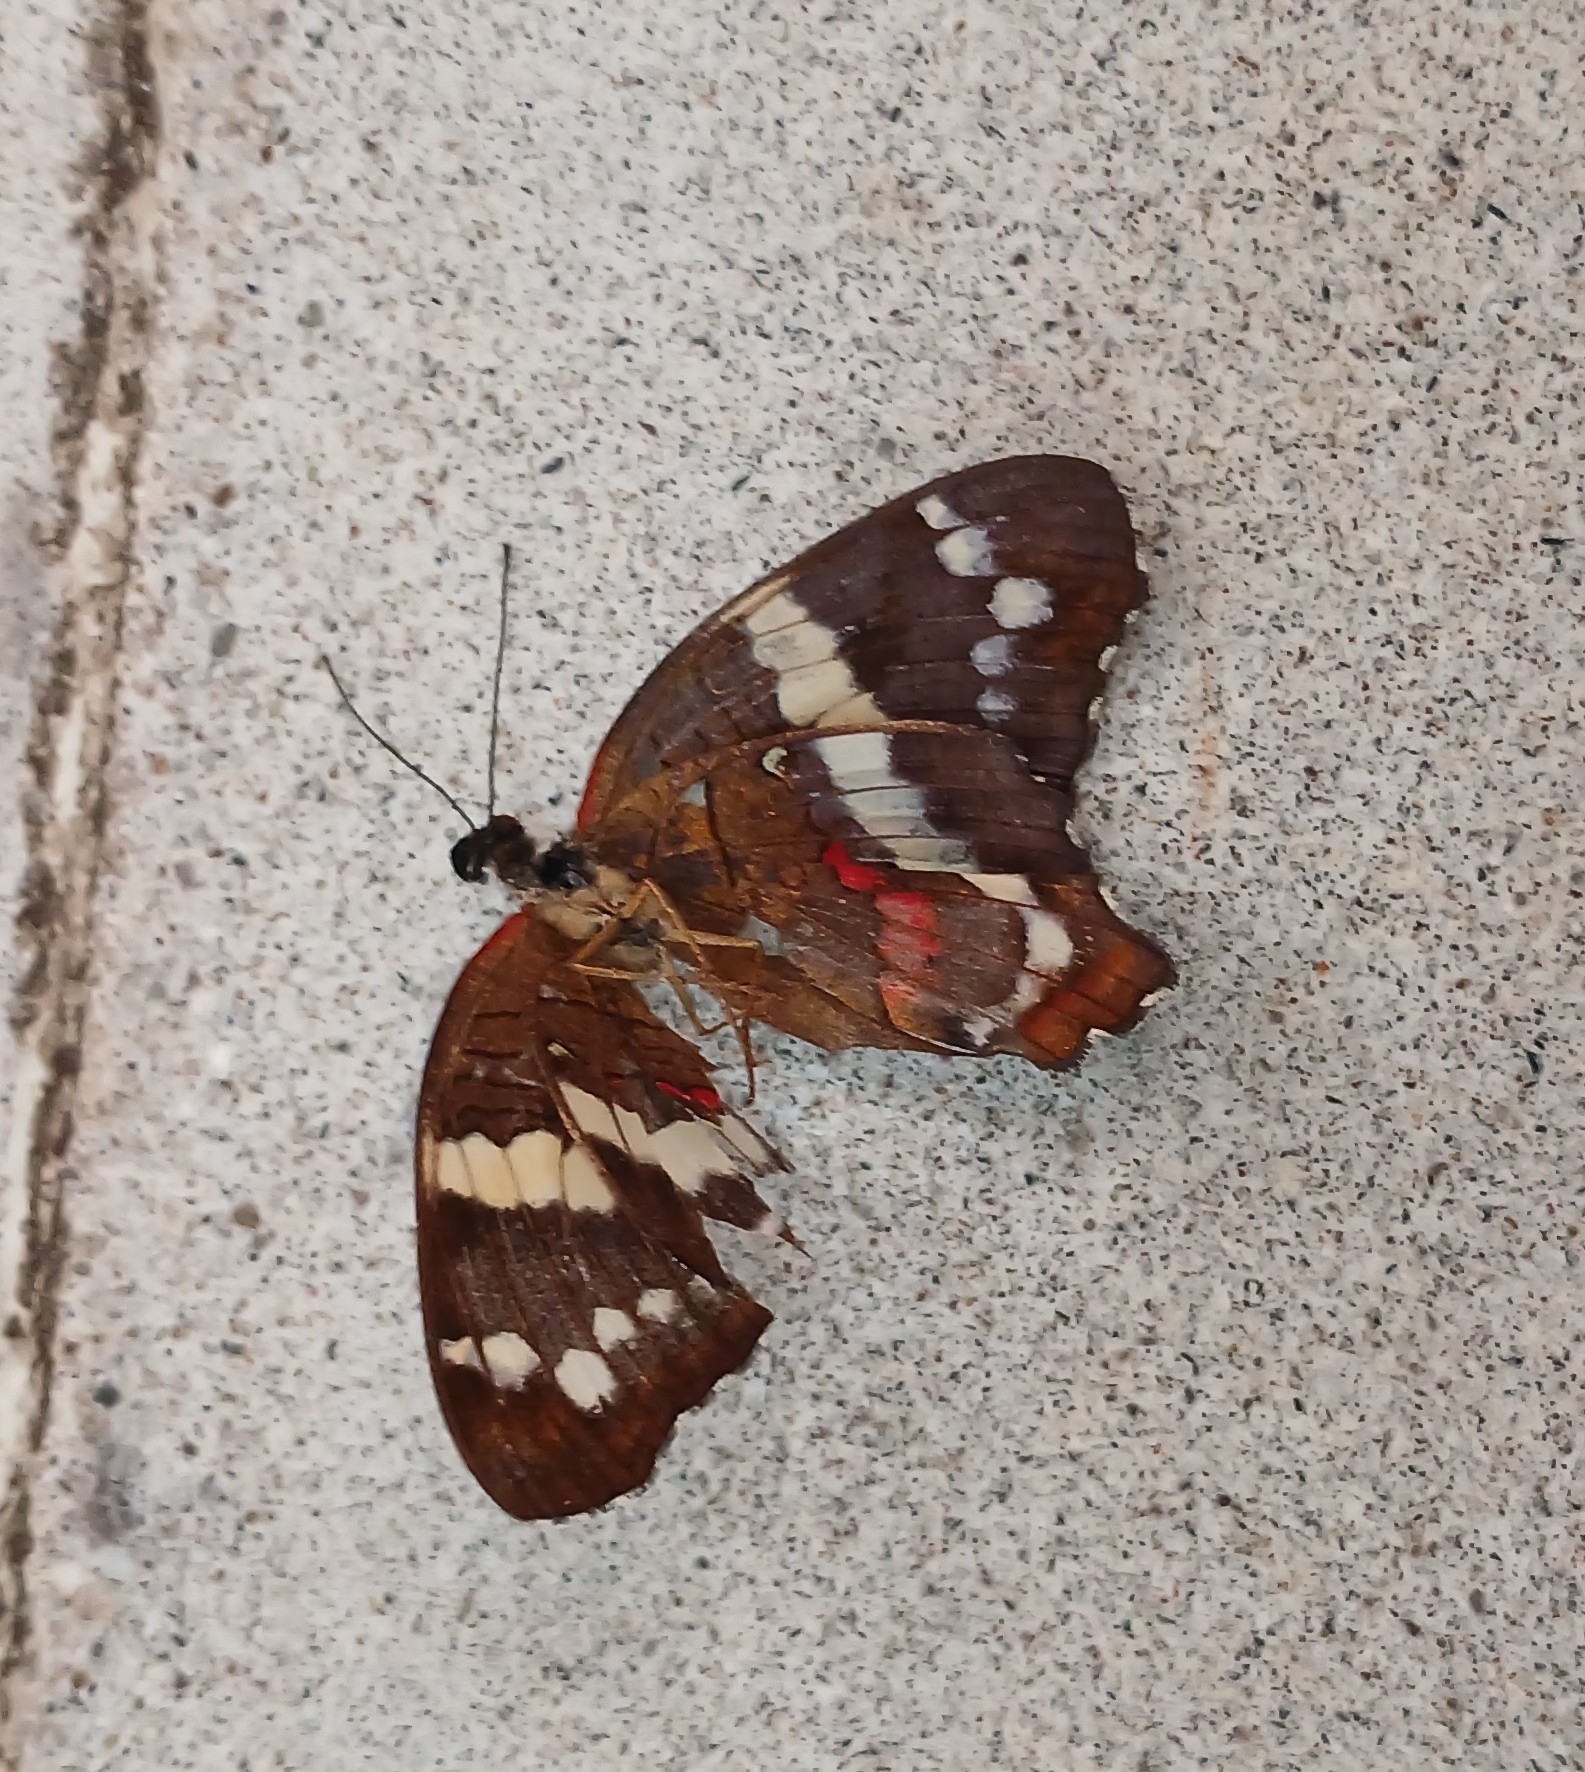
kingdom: Animalia
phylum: Arthropoda
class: Insecta
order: Lepidoptera
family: Nymphalidae
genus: Anartia
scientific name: Anartia fatima
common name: Banded peacock
